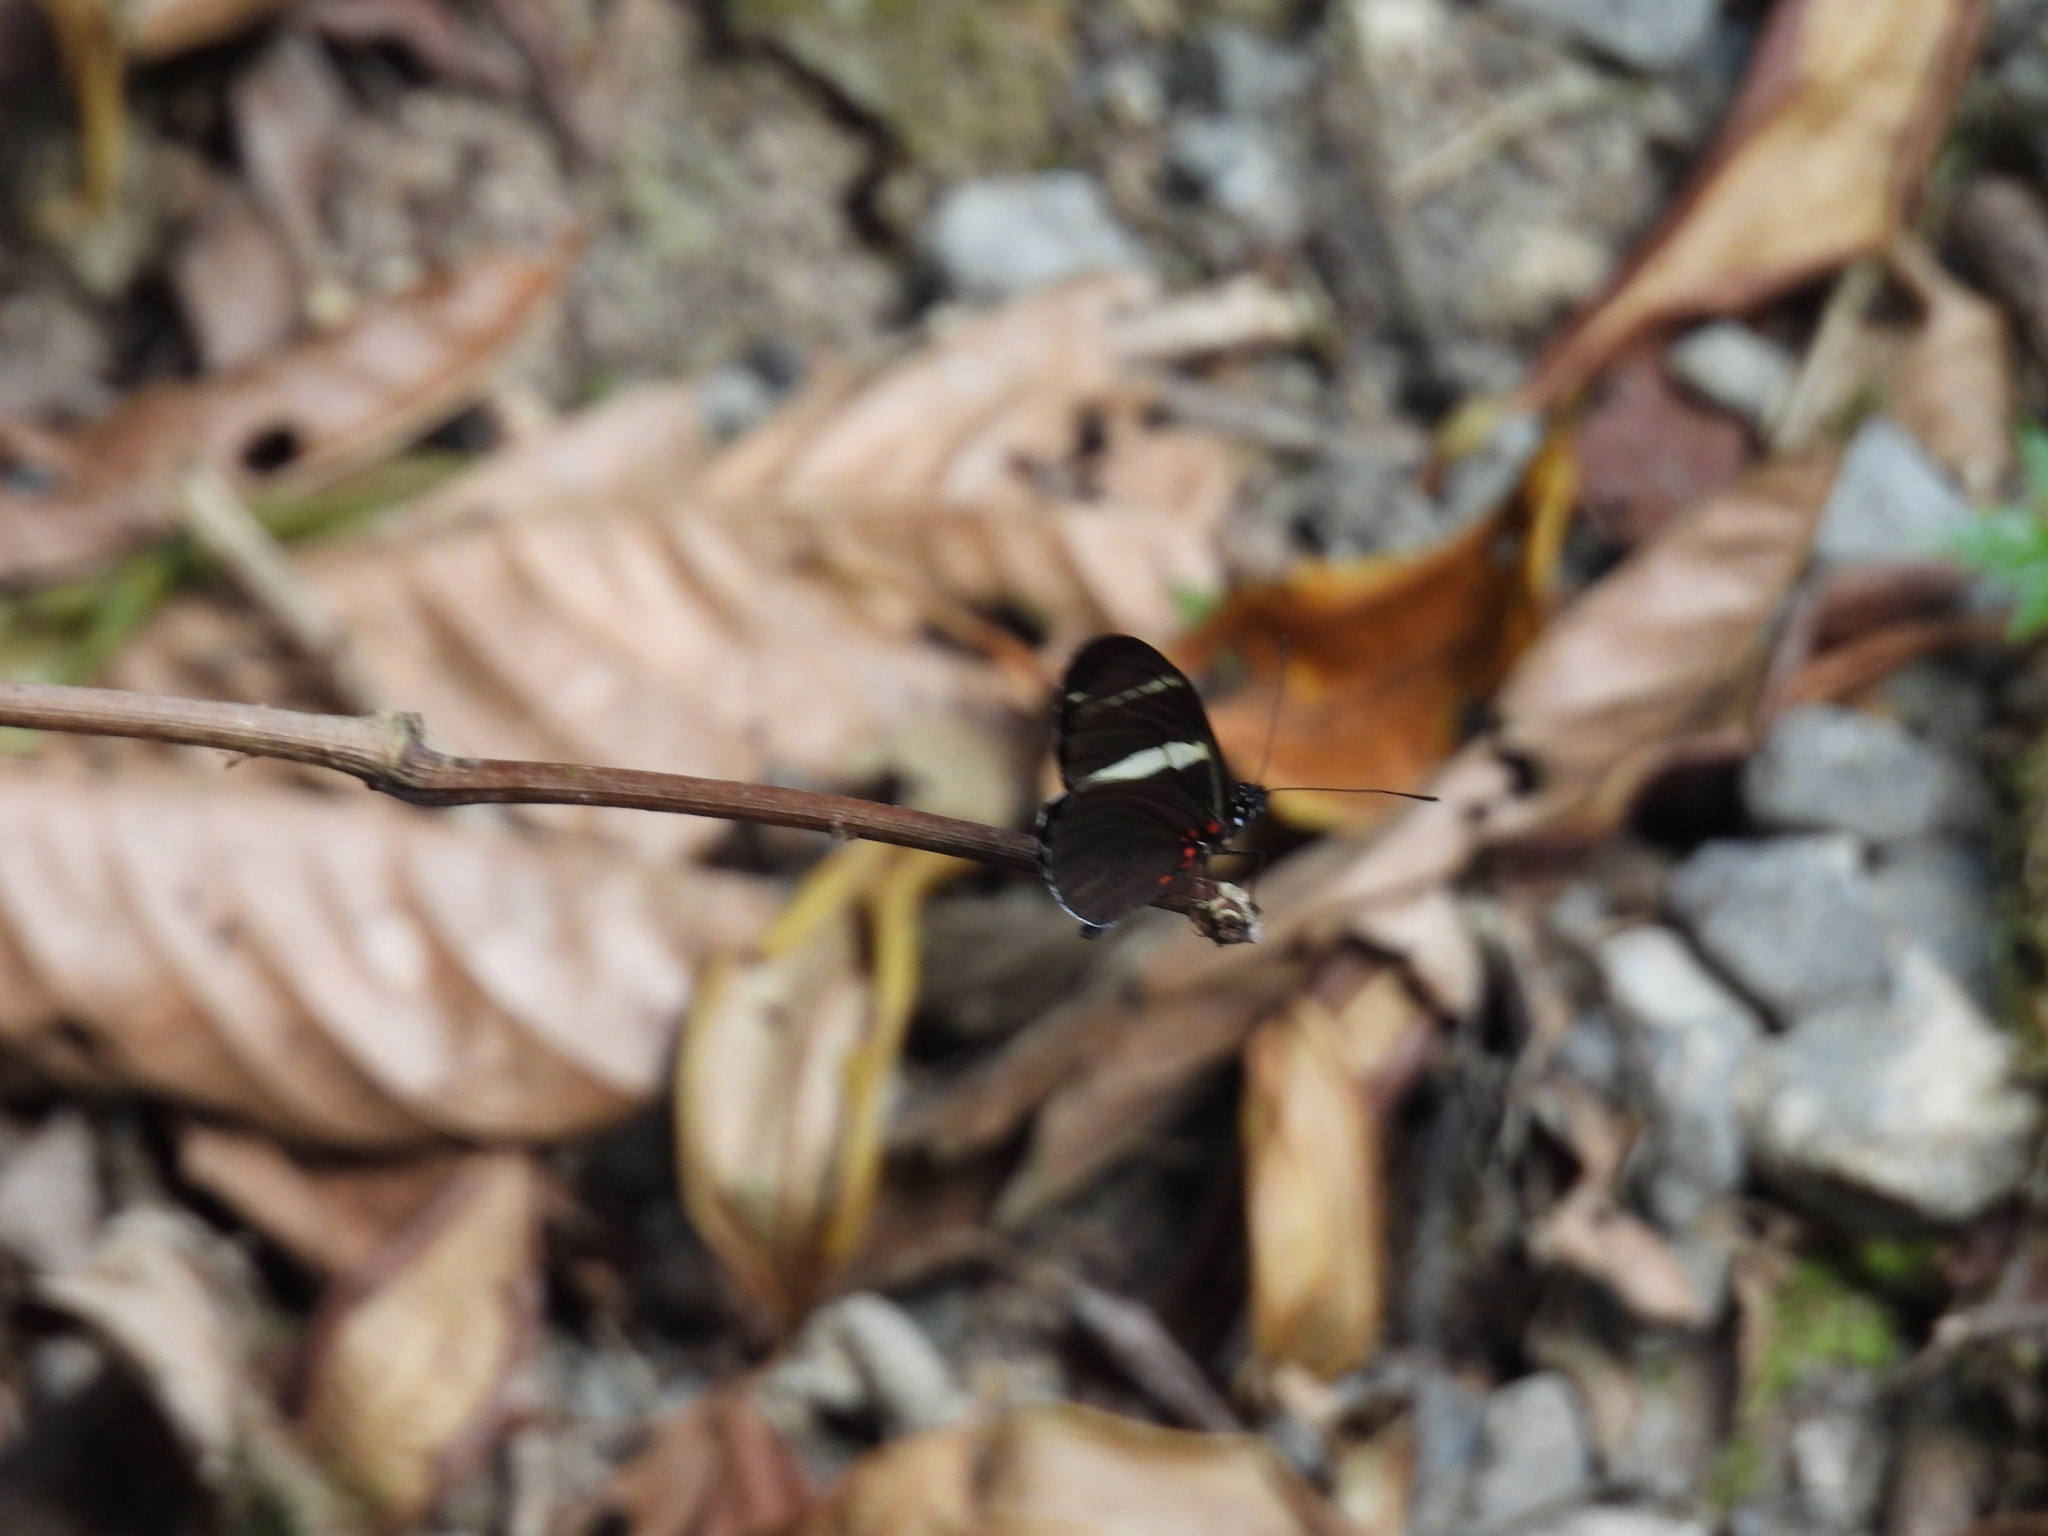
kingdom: Animalia
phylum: Arthropoda
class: Insecta
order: Lepidoptera
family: Nymphalidae
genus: Heliconius
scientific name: Heliconius sara
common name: Sara longwing
